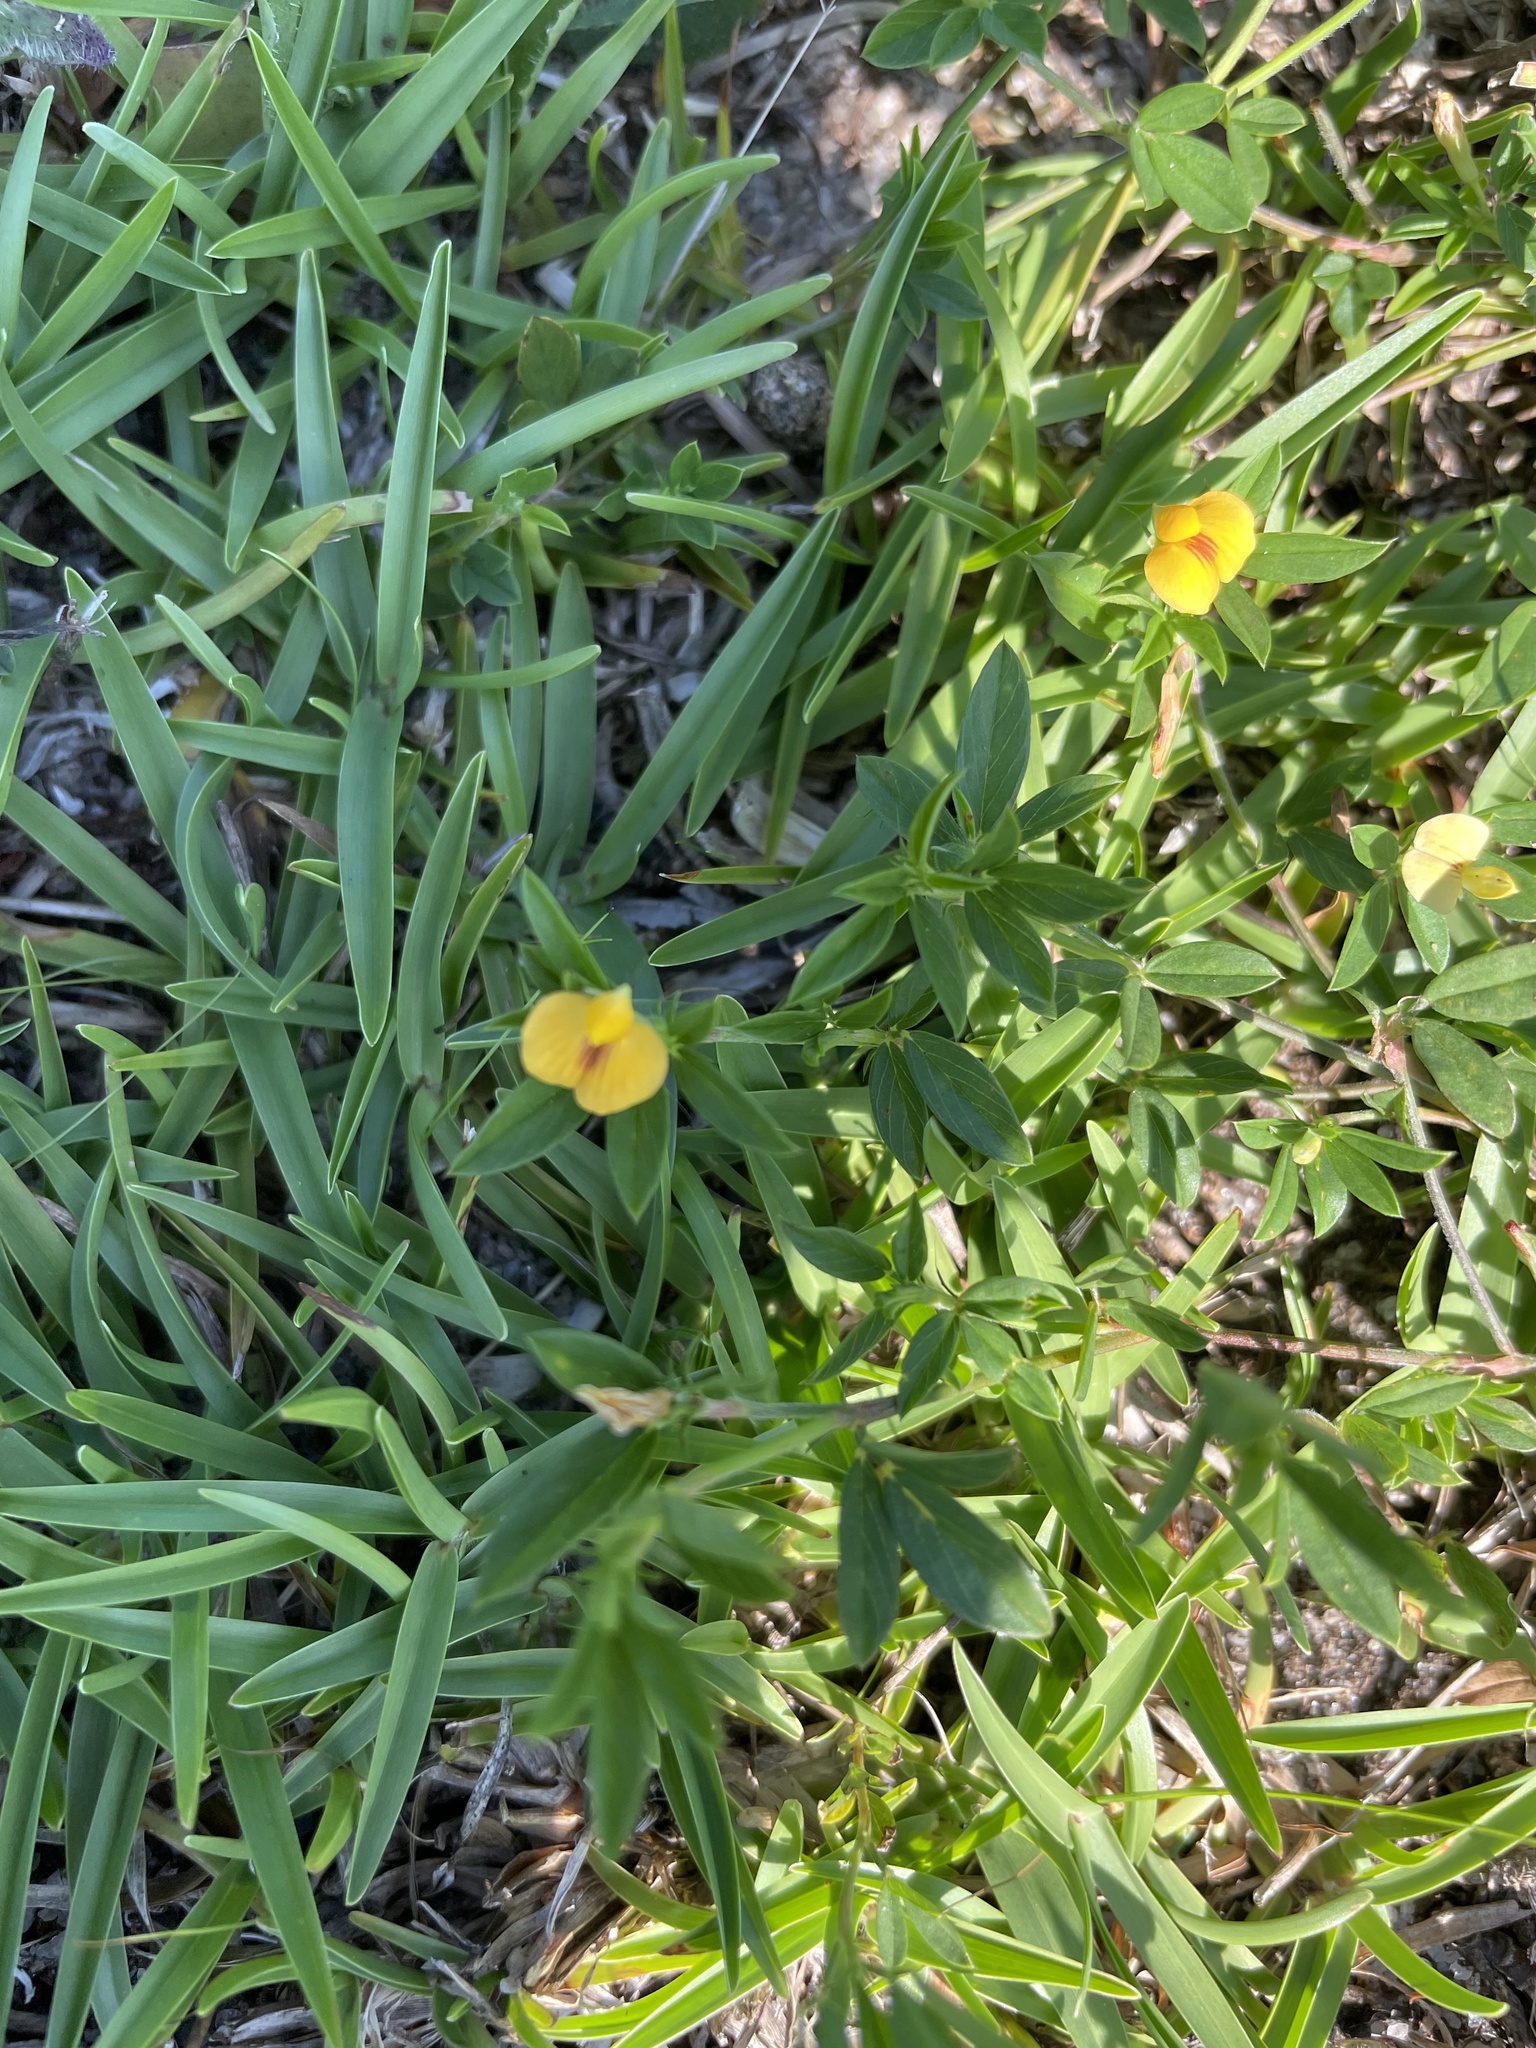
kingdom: Plantae
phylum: Tracheophyta
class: Magnoliopsida
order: Fabales
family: Fabaceae
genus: Stylosanthes
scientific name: Stylosanthes biflora
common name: Two-flower pencil-flower
